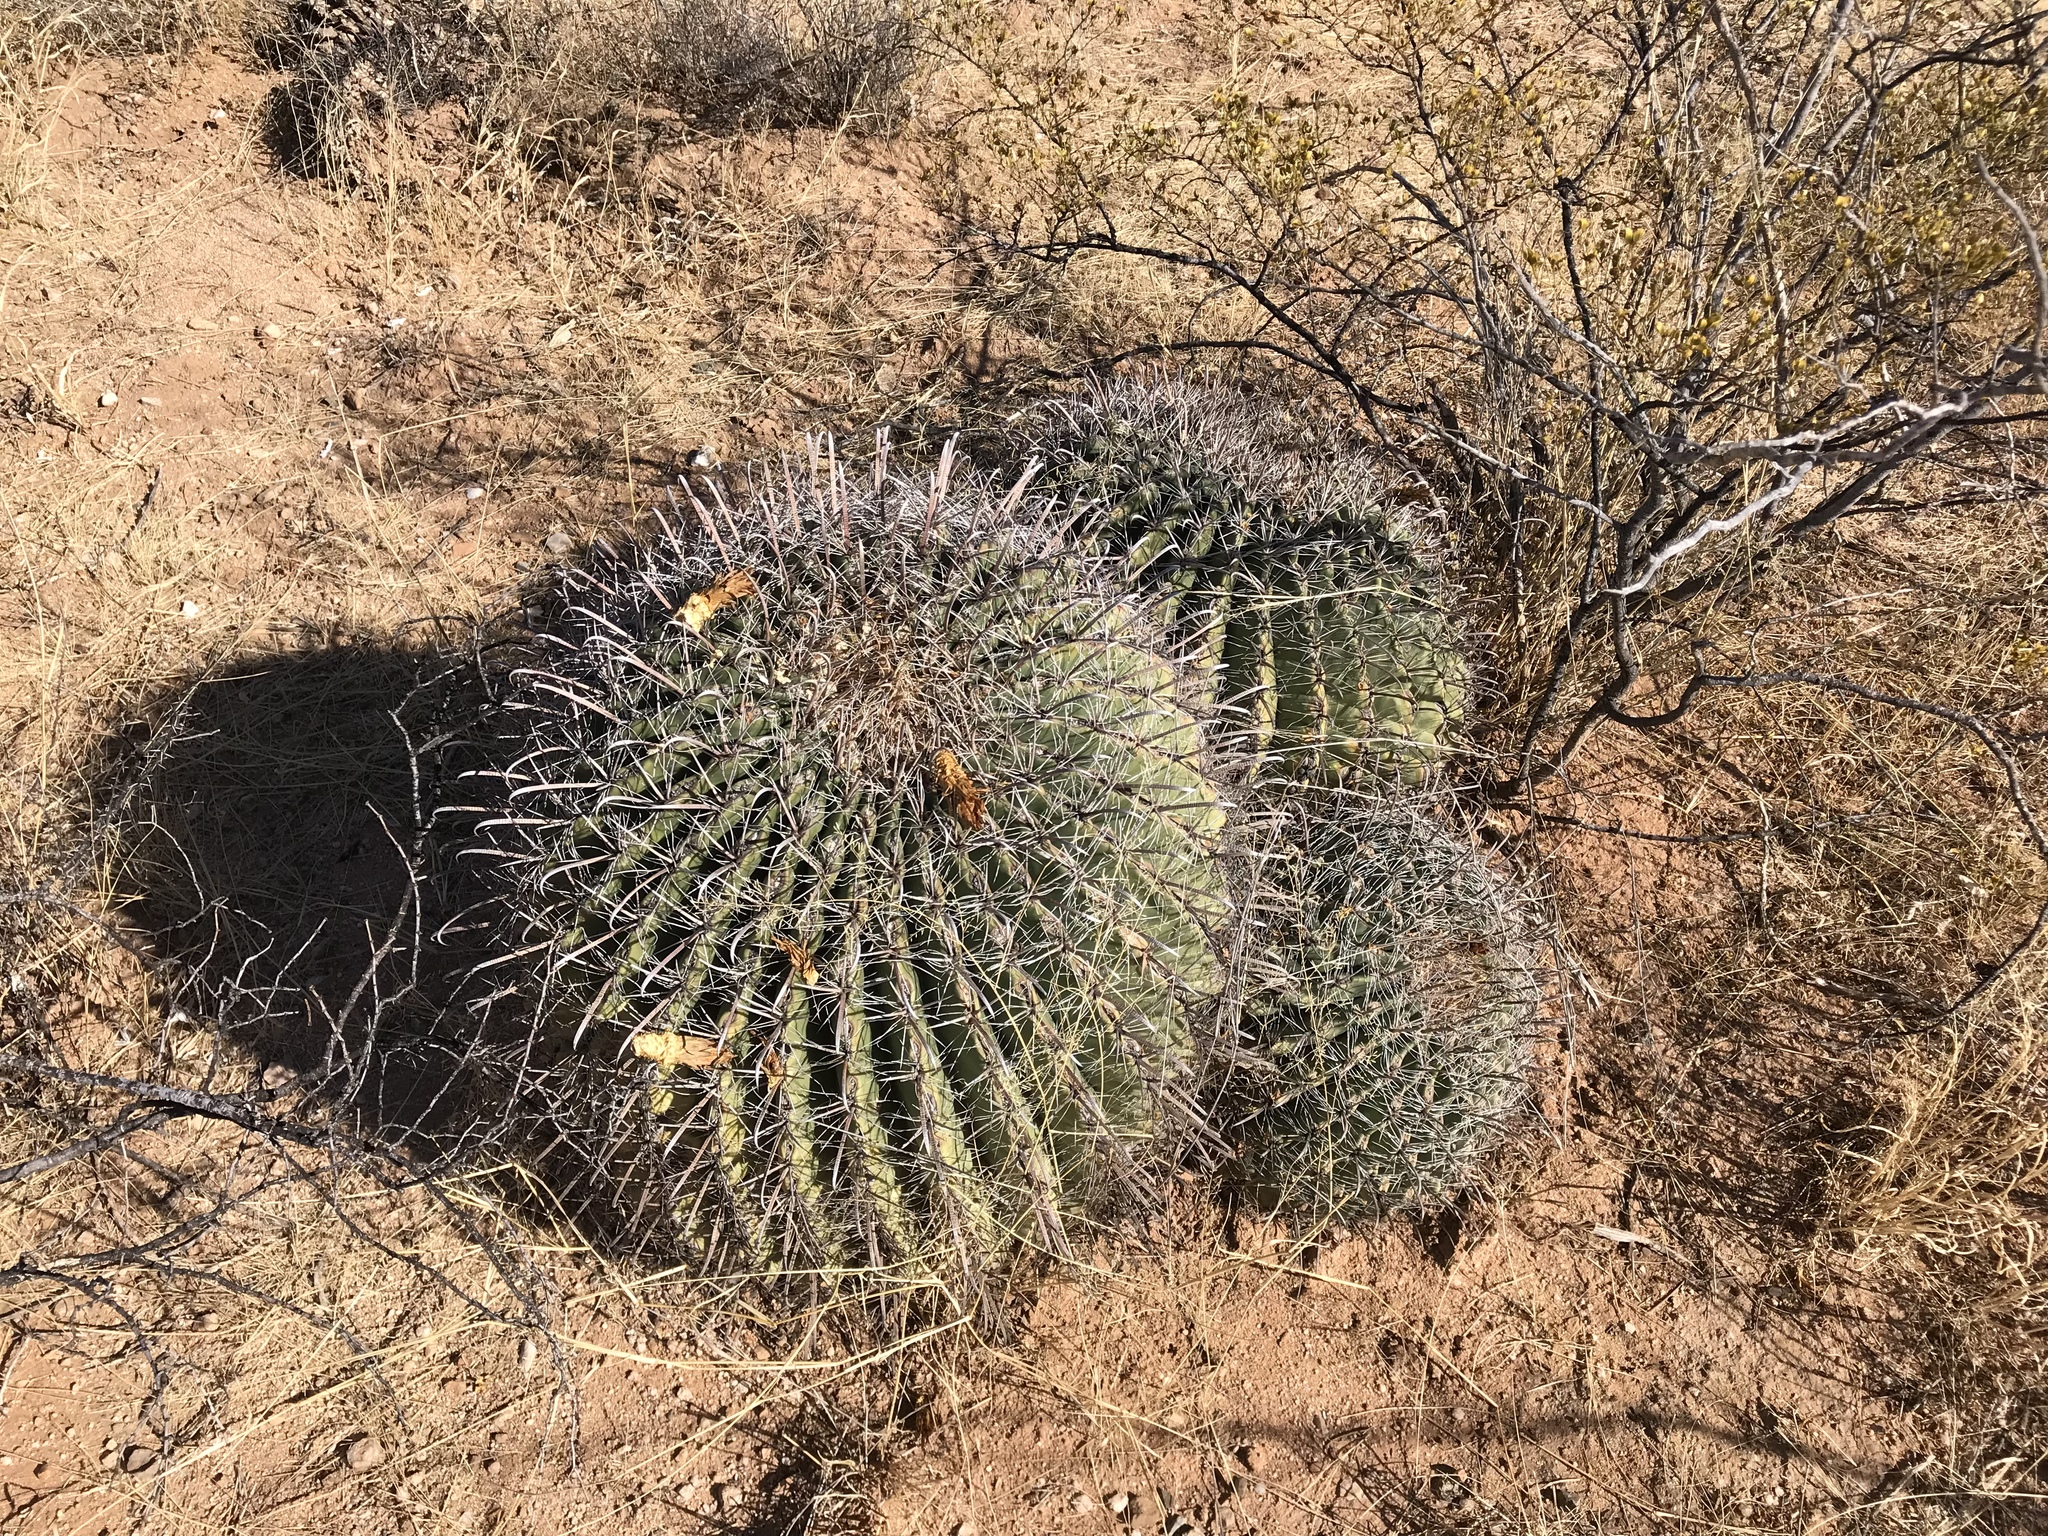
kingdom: Plantae
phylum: Tracheophyta
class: Magnoliopsida
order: Caryophyllales
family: Cactaceae
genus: Ferocactus
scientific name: Ferocactus wislizeni
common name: Candy barrel cactus
